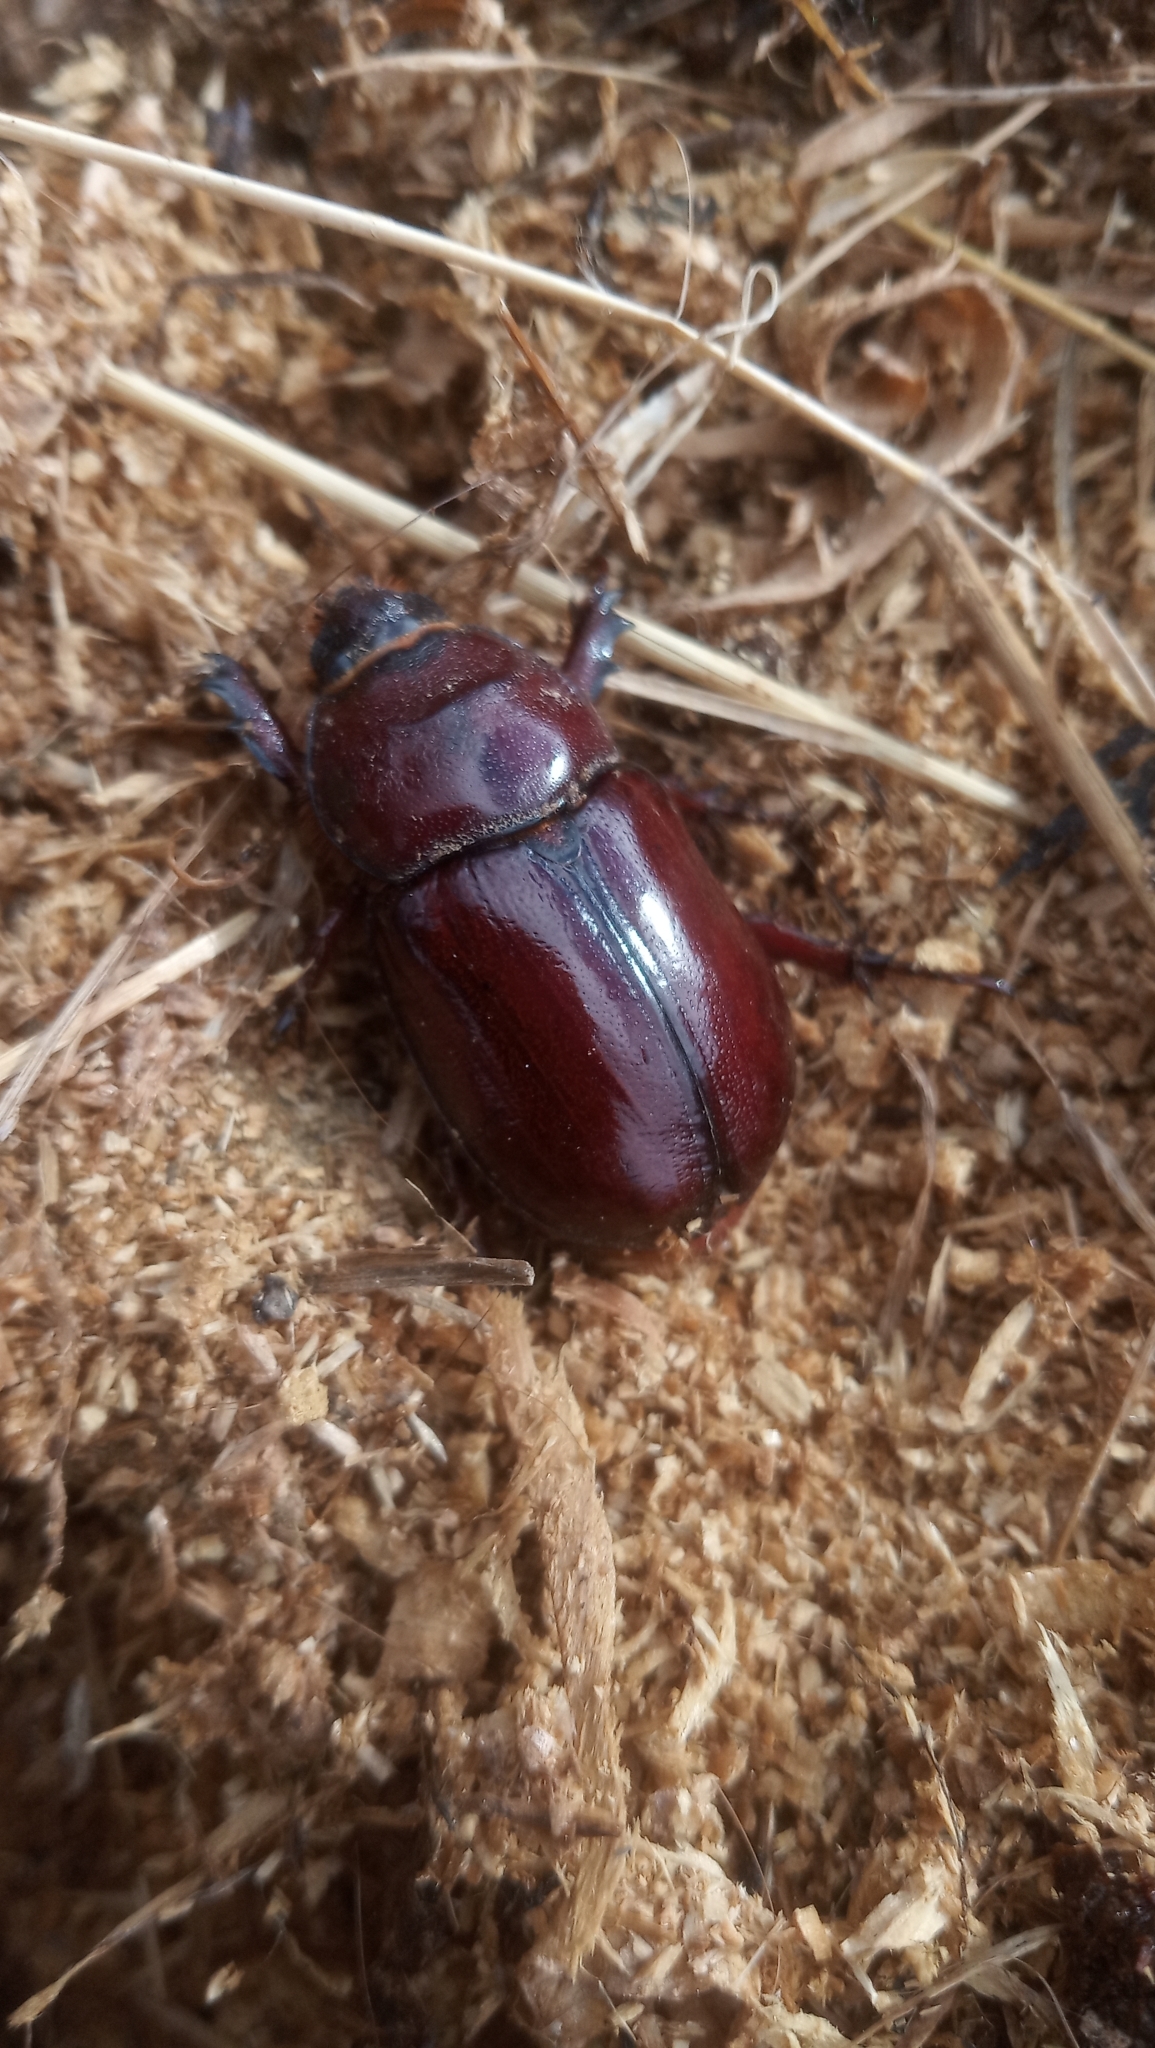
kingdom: Animalia
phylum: Arthropoda
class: Insecta
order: Coleoptera
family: Scarabaeidae
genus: Oryctes
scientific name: Oryctes nasicornis
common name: European rhinoceros beetle
